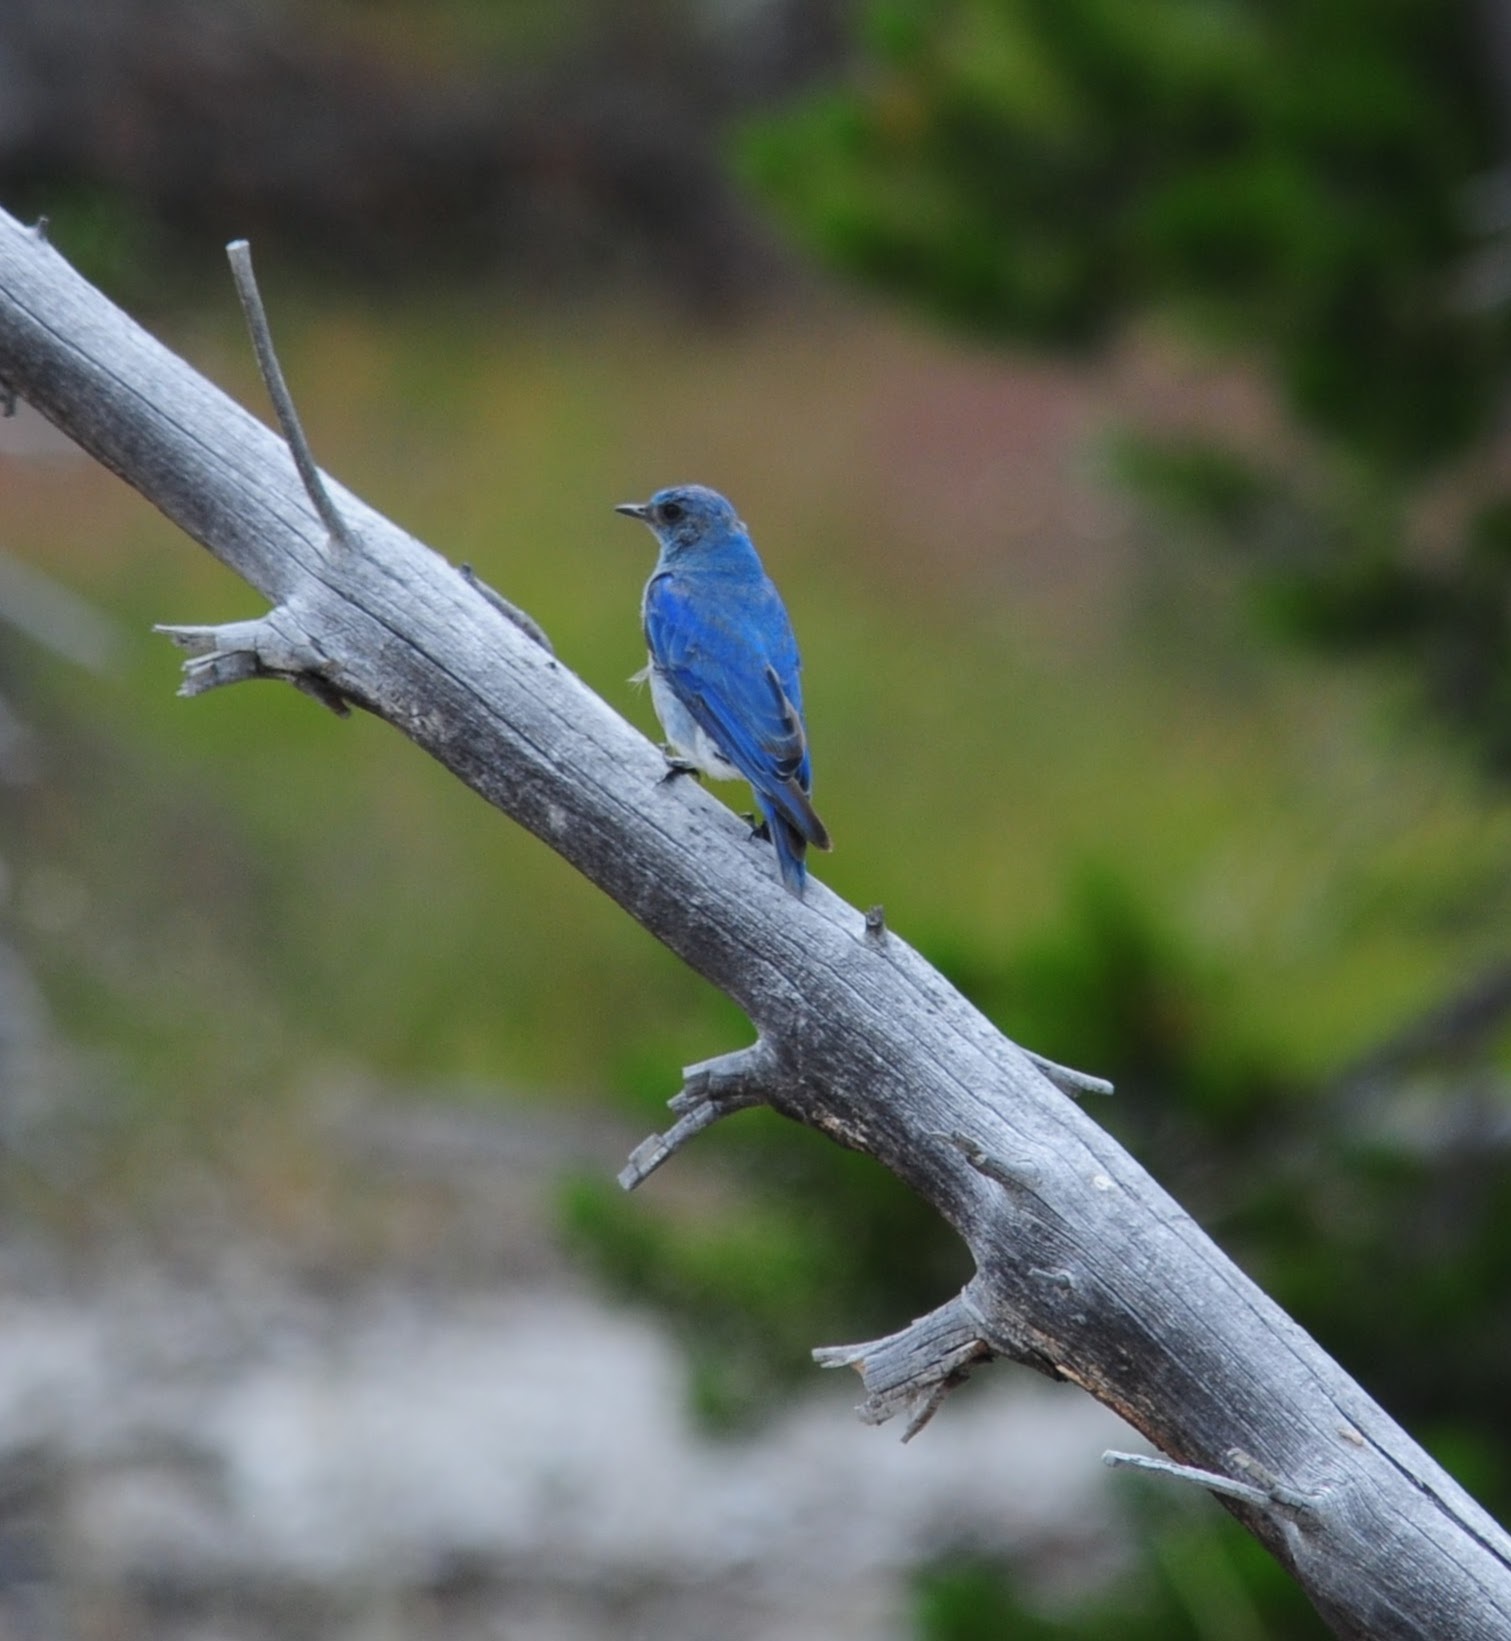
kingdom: Animalia
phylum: Chordata
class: Aves
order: Passeriformes
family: Turdidae
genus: Sialia
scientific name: Sialia currucoides
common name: Mountain bluebird
